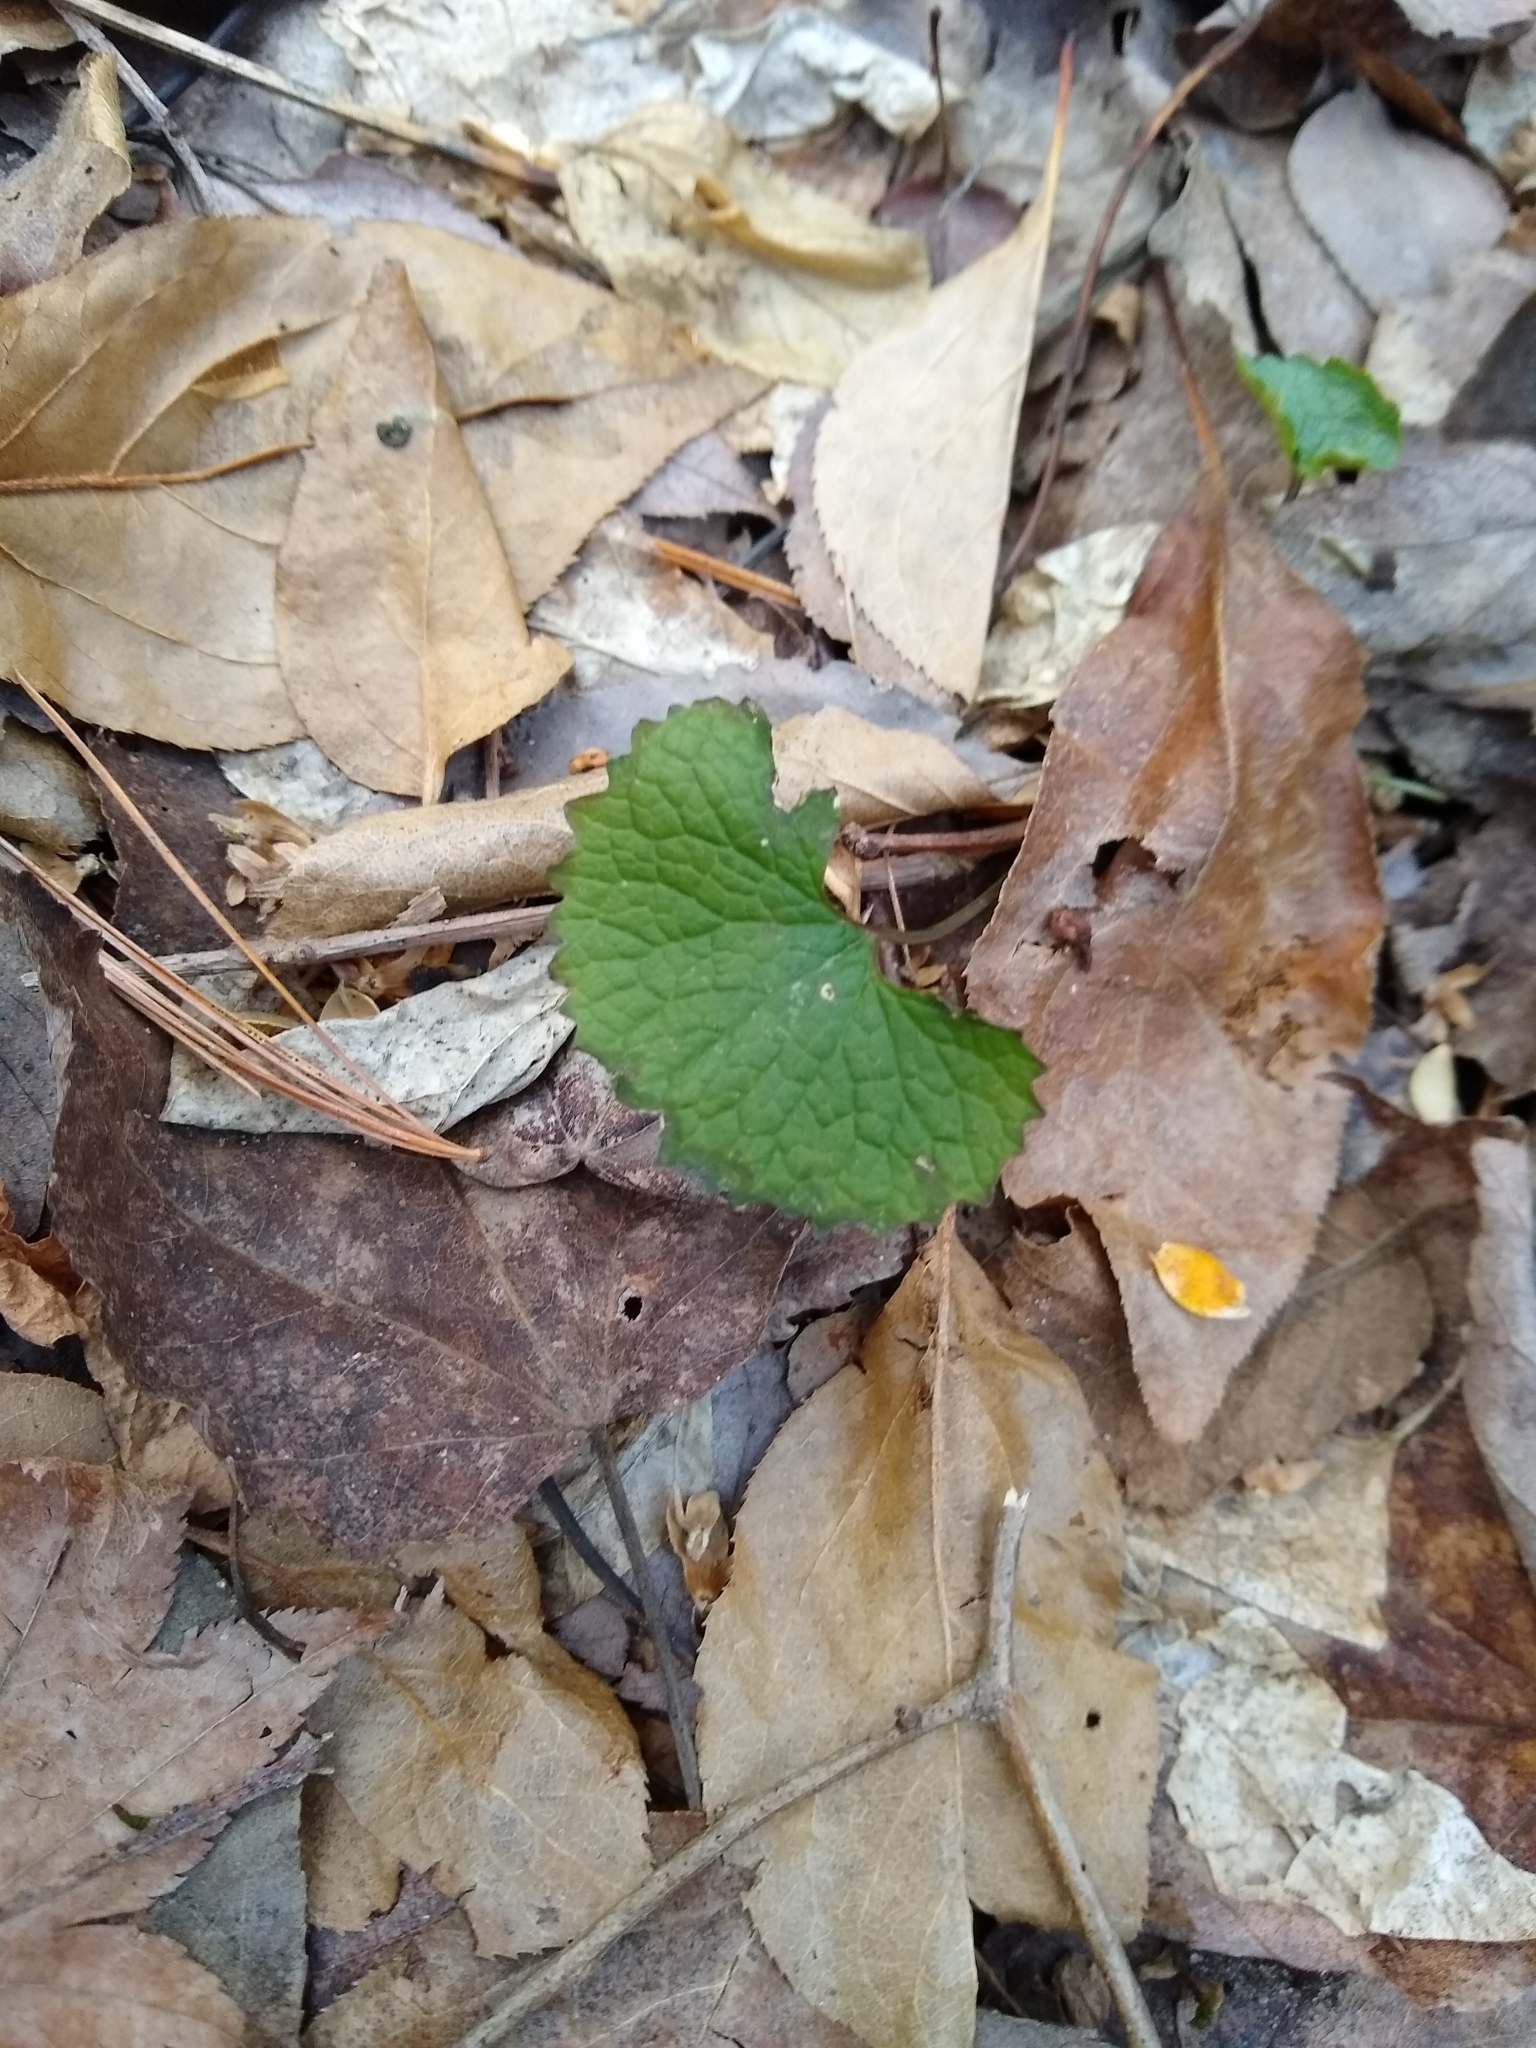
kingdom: Plantae
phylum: Tracheophyta
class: Magnoliopsida
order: Brassicales
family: Brassicaceae
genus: Alliaria
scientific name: Alliaria petiolata
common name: Garlic mustard
